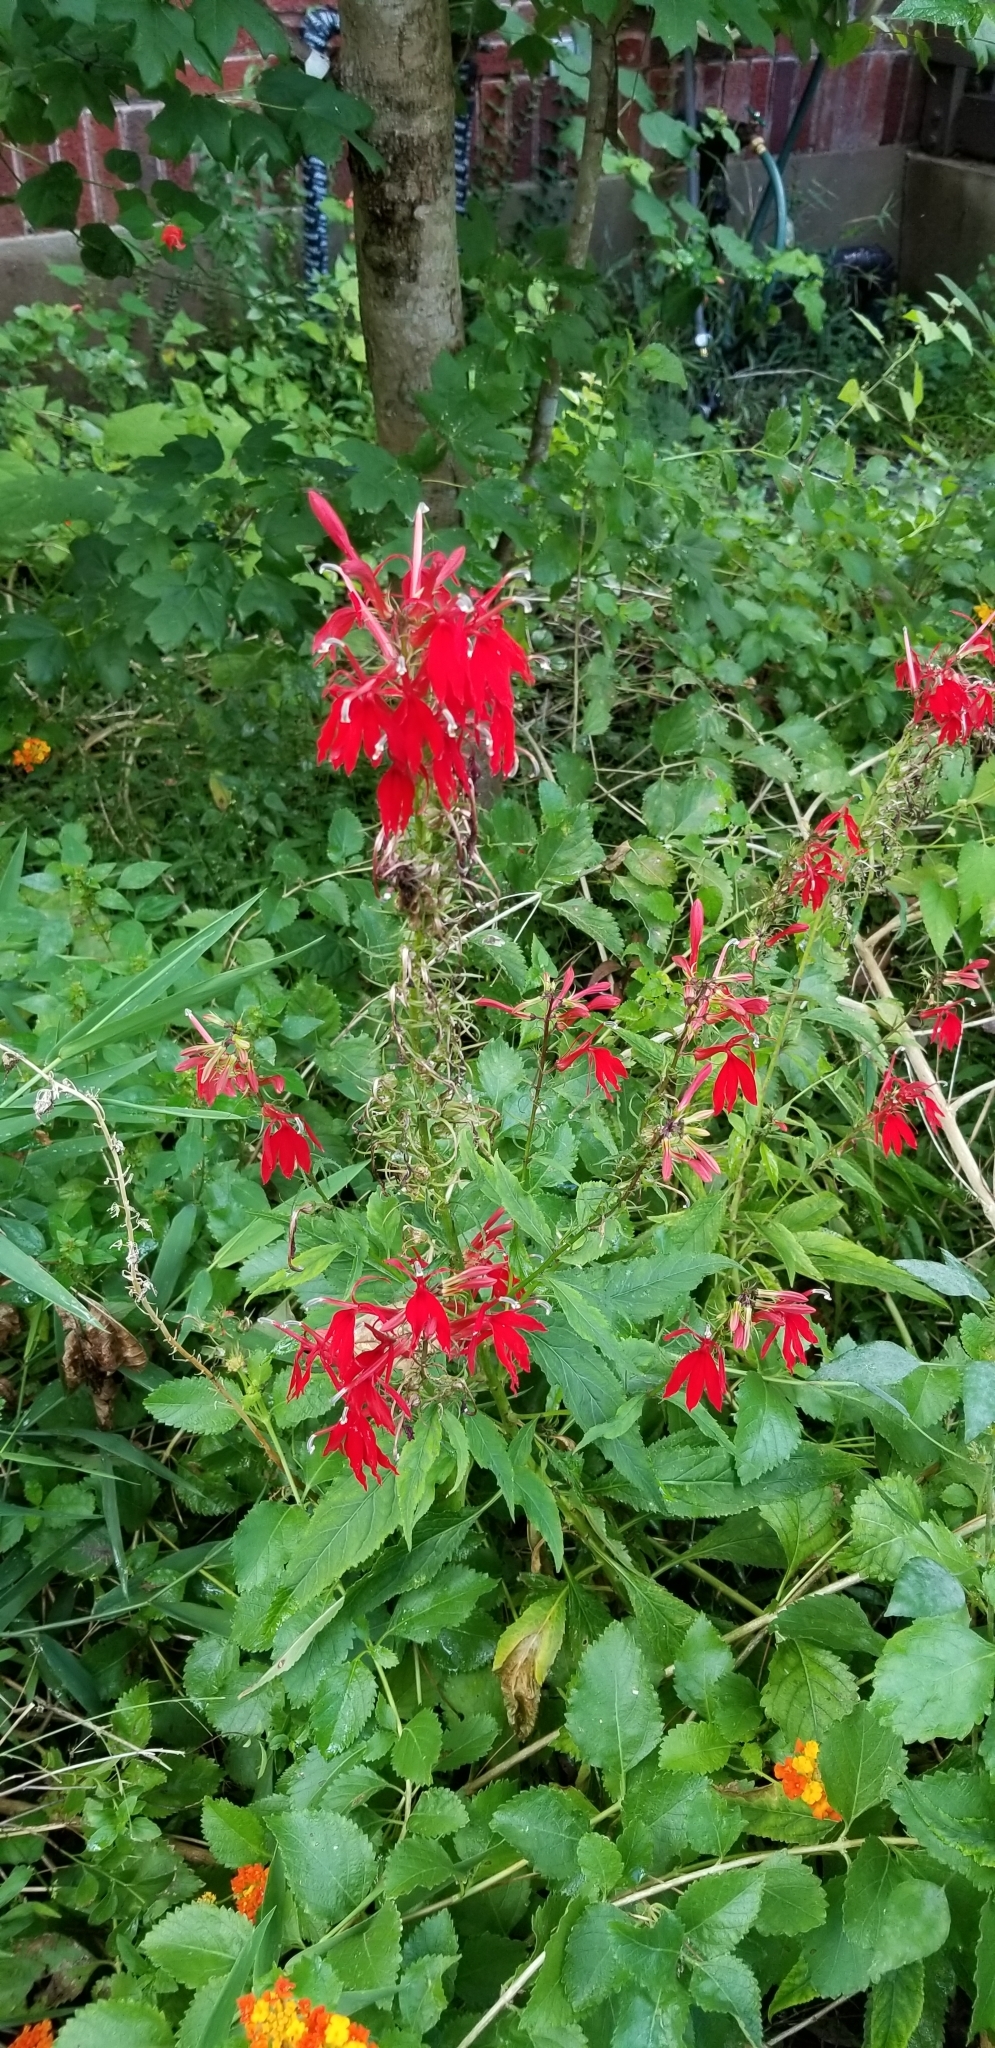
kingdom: Plantae
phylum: Tracheophyta
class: Magnoliopsida
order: Asterales
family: Campanulaceae
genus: Lobelia
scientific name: Lobelia cardinalis
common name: Cardinal flower
